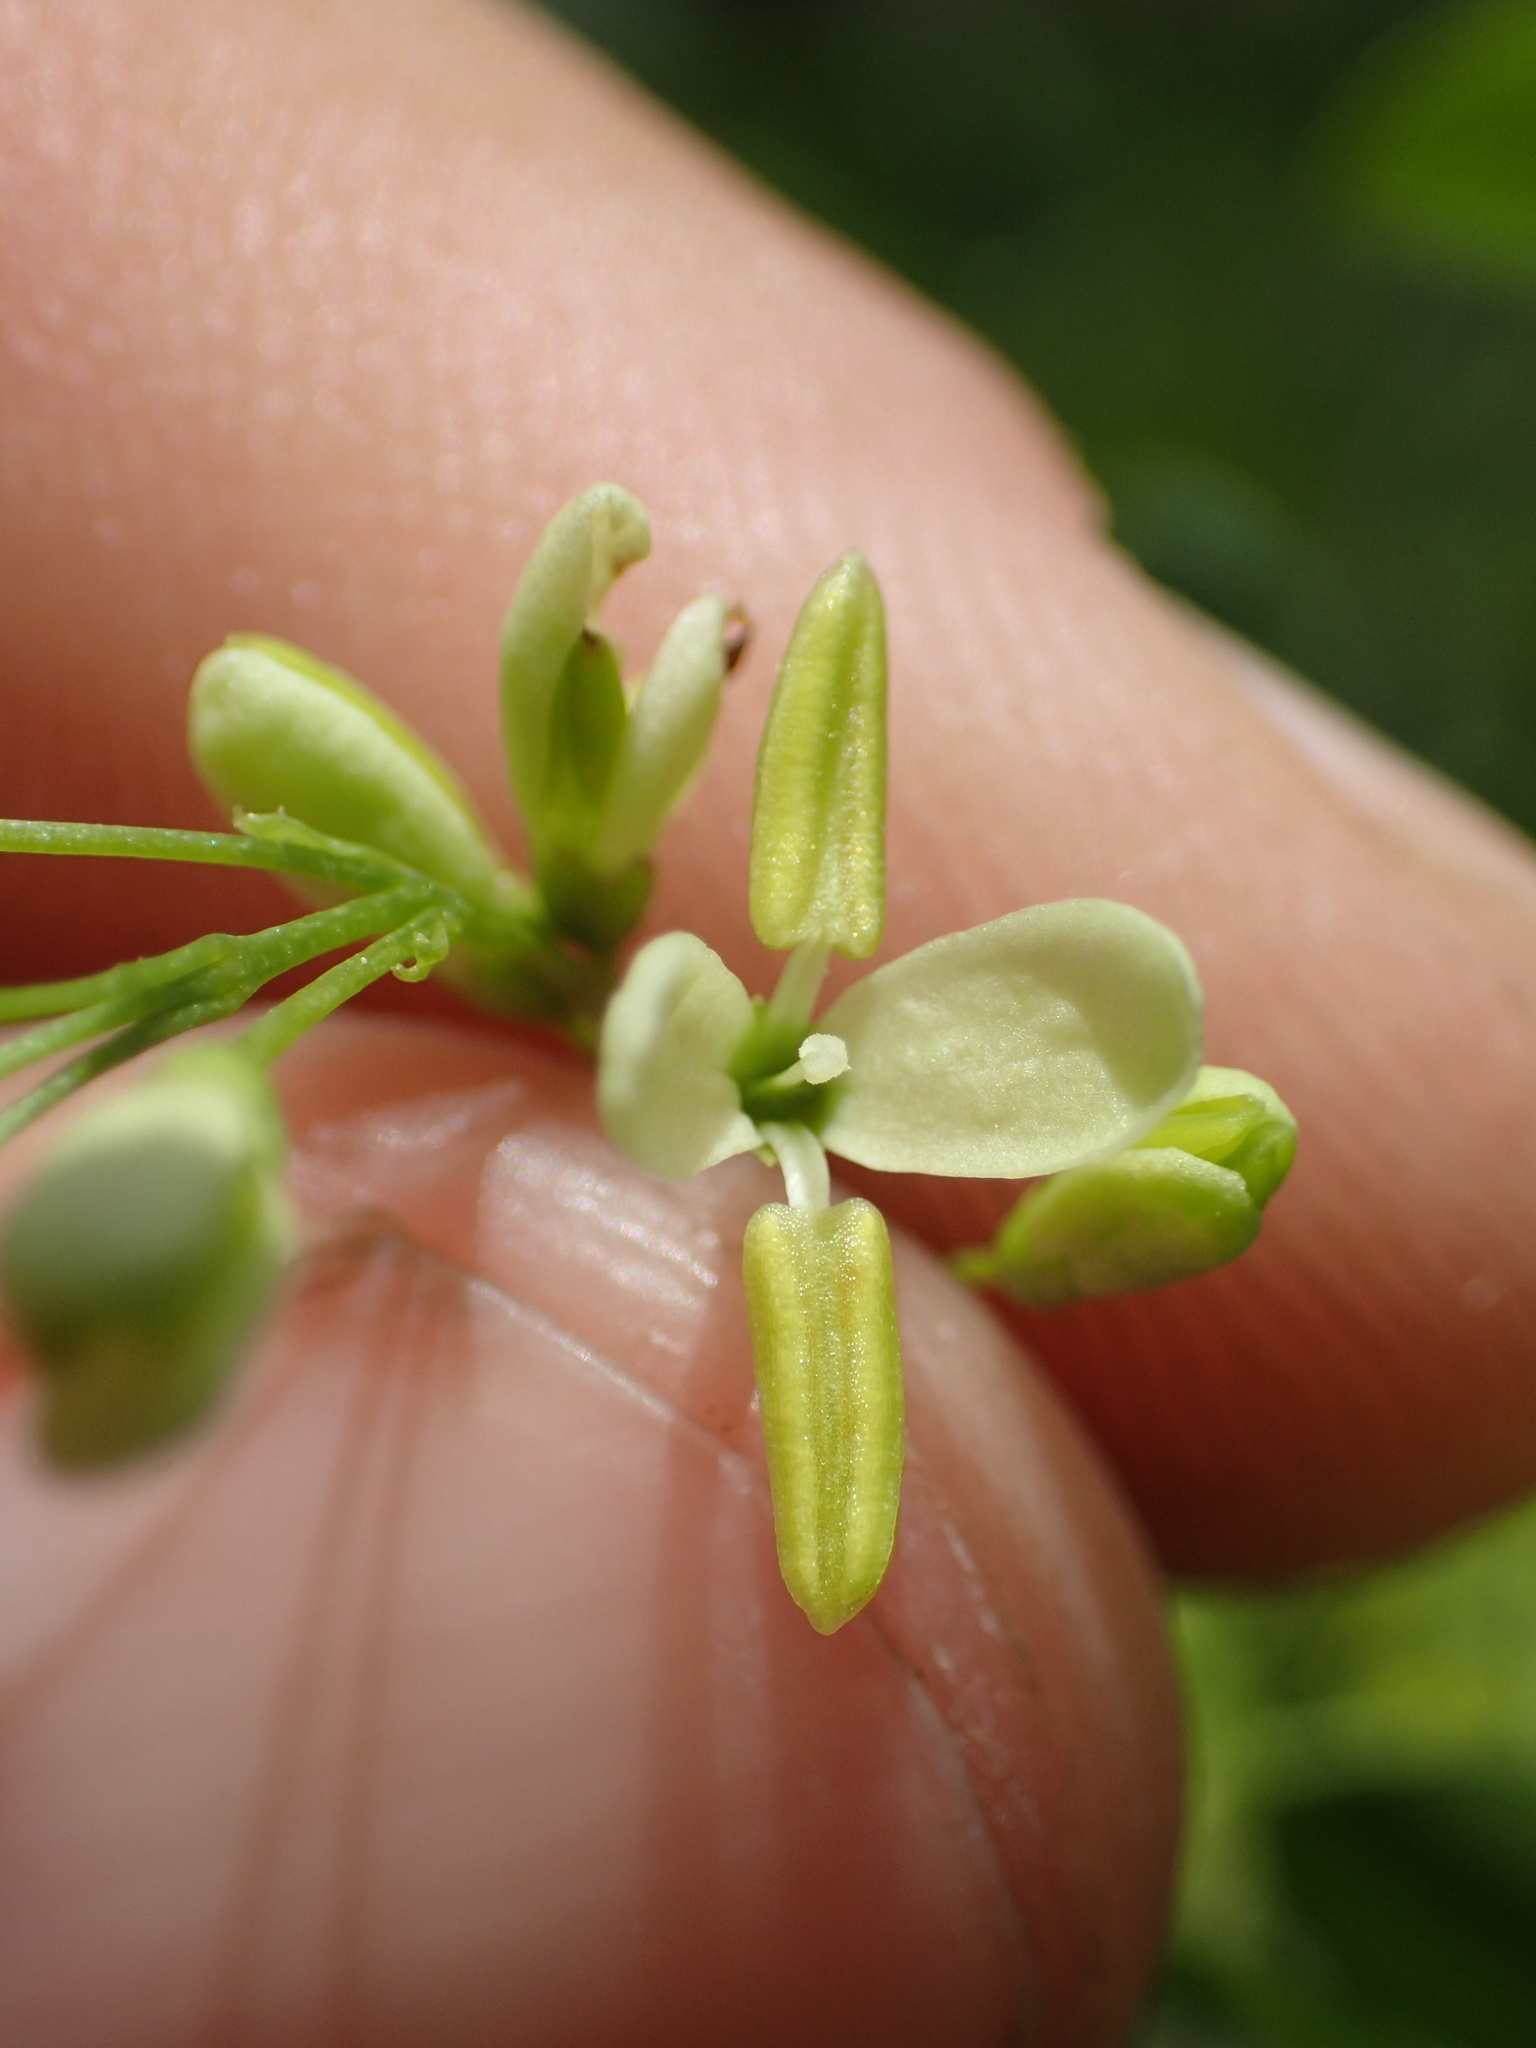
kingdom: Plantae
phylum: Tracheophyta
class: Magnoliopsida
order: Lamiales
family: Oleaceae
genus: Fraxinus
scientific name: Fraxinus dipetala
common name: California ash
